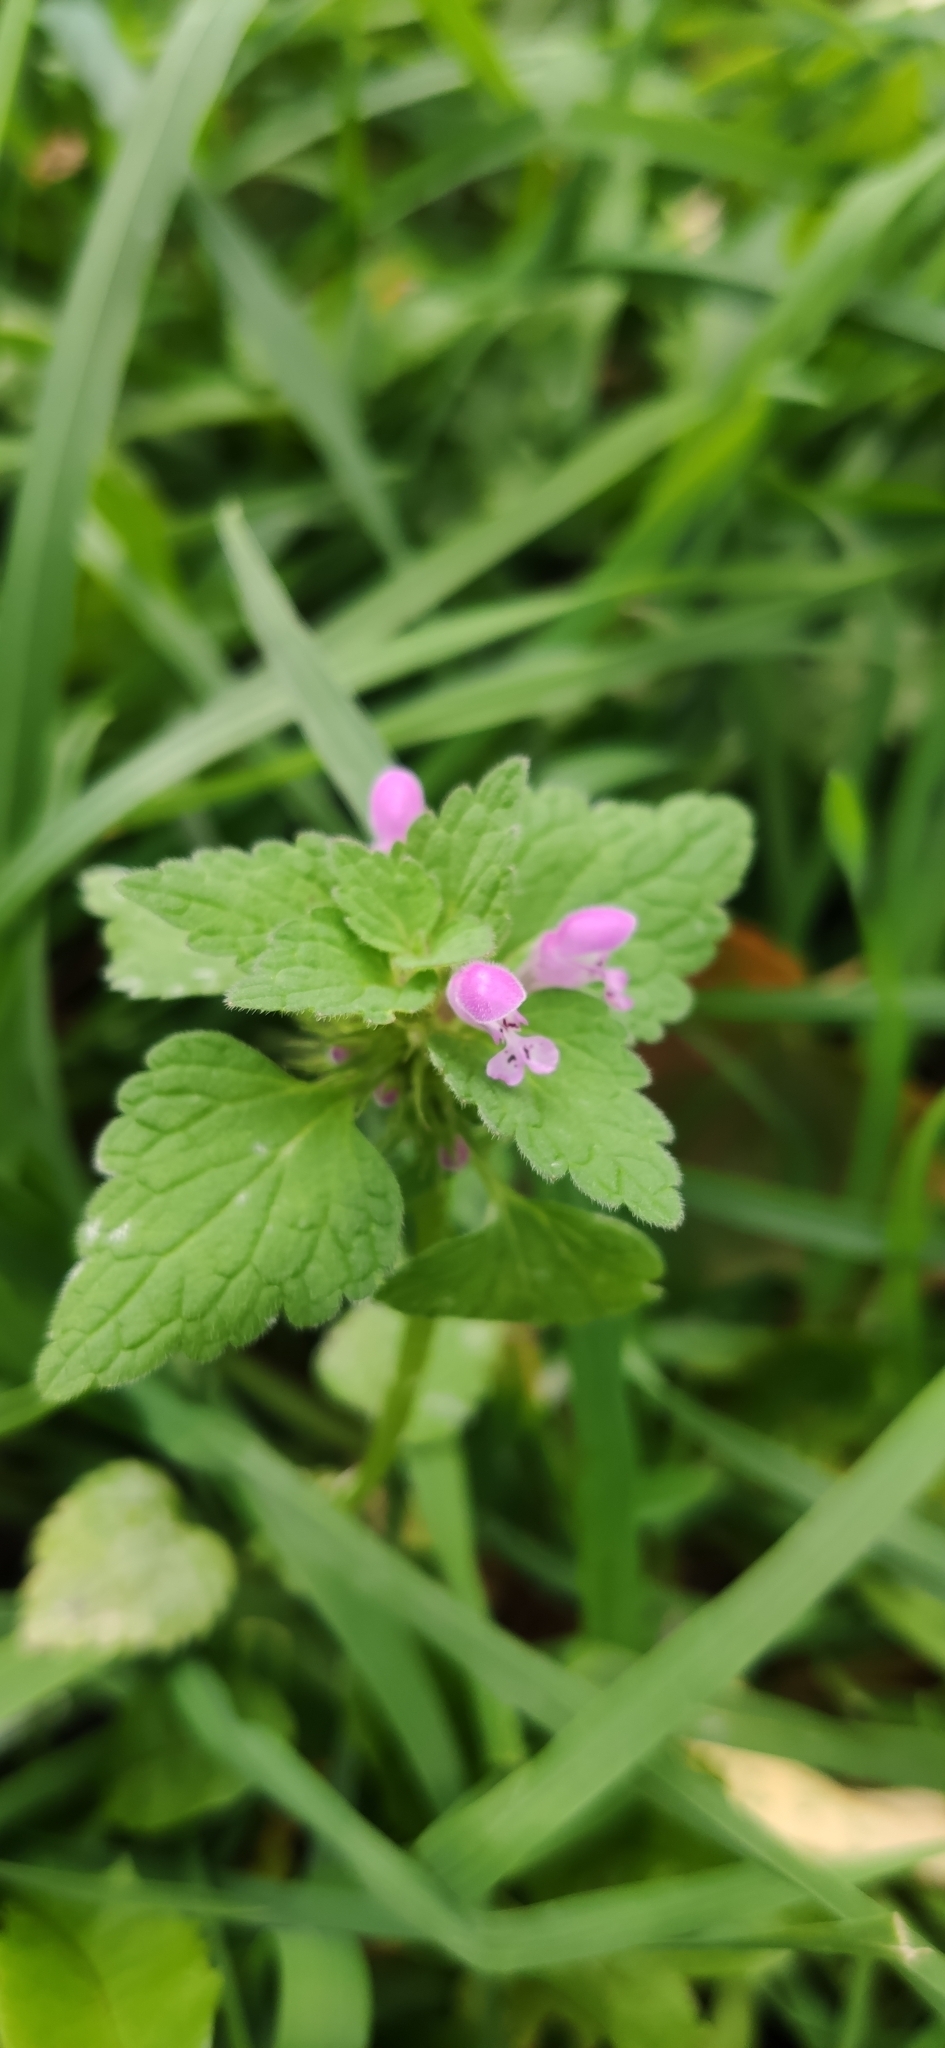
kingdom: Plantae
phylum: Tracheophyta
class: Magnoliopsida
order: Lamiales
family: Lamiaceae
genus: Lamium
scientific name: Lamium purpureum
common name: Red dead-nettle
